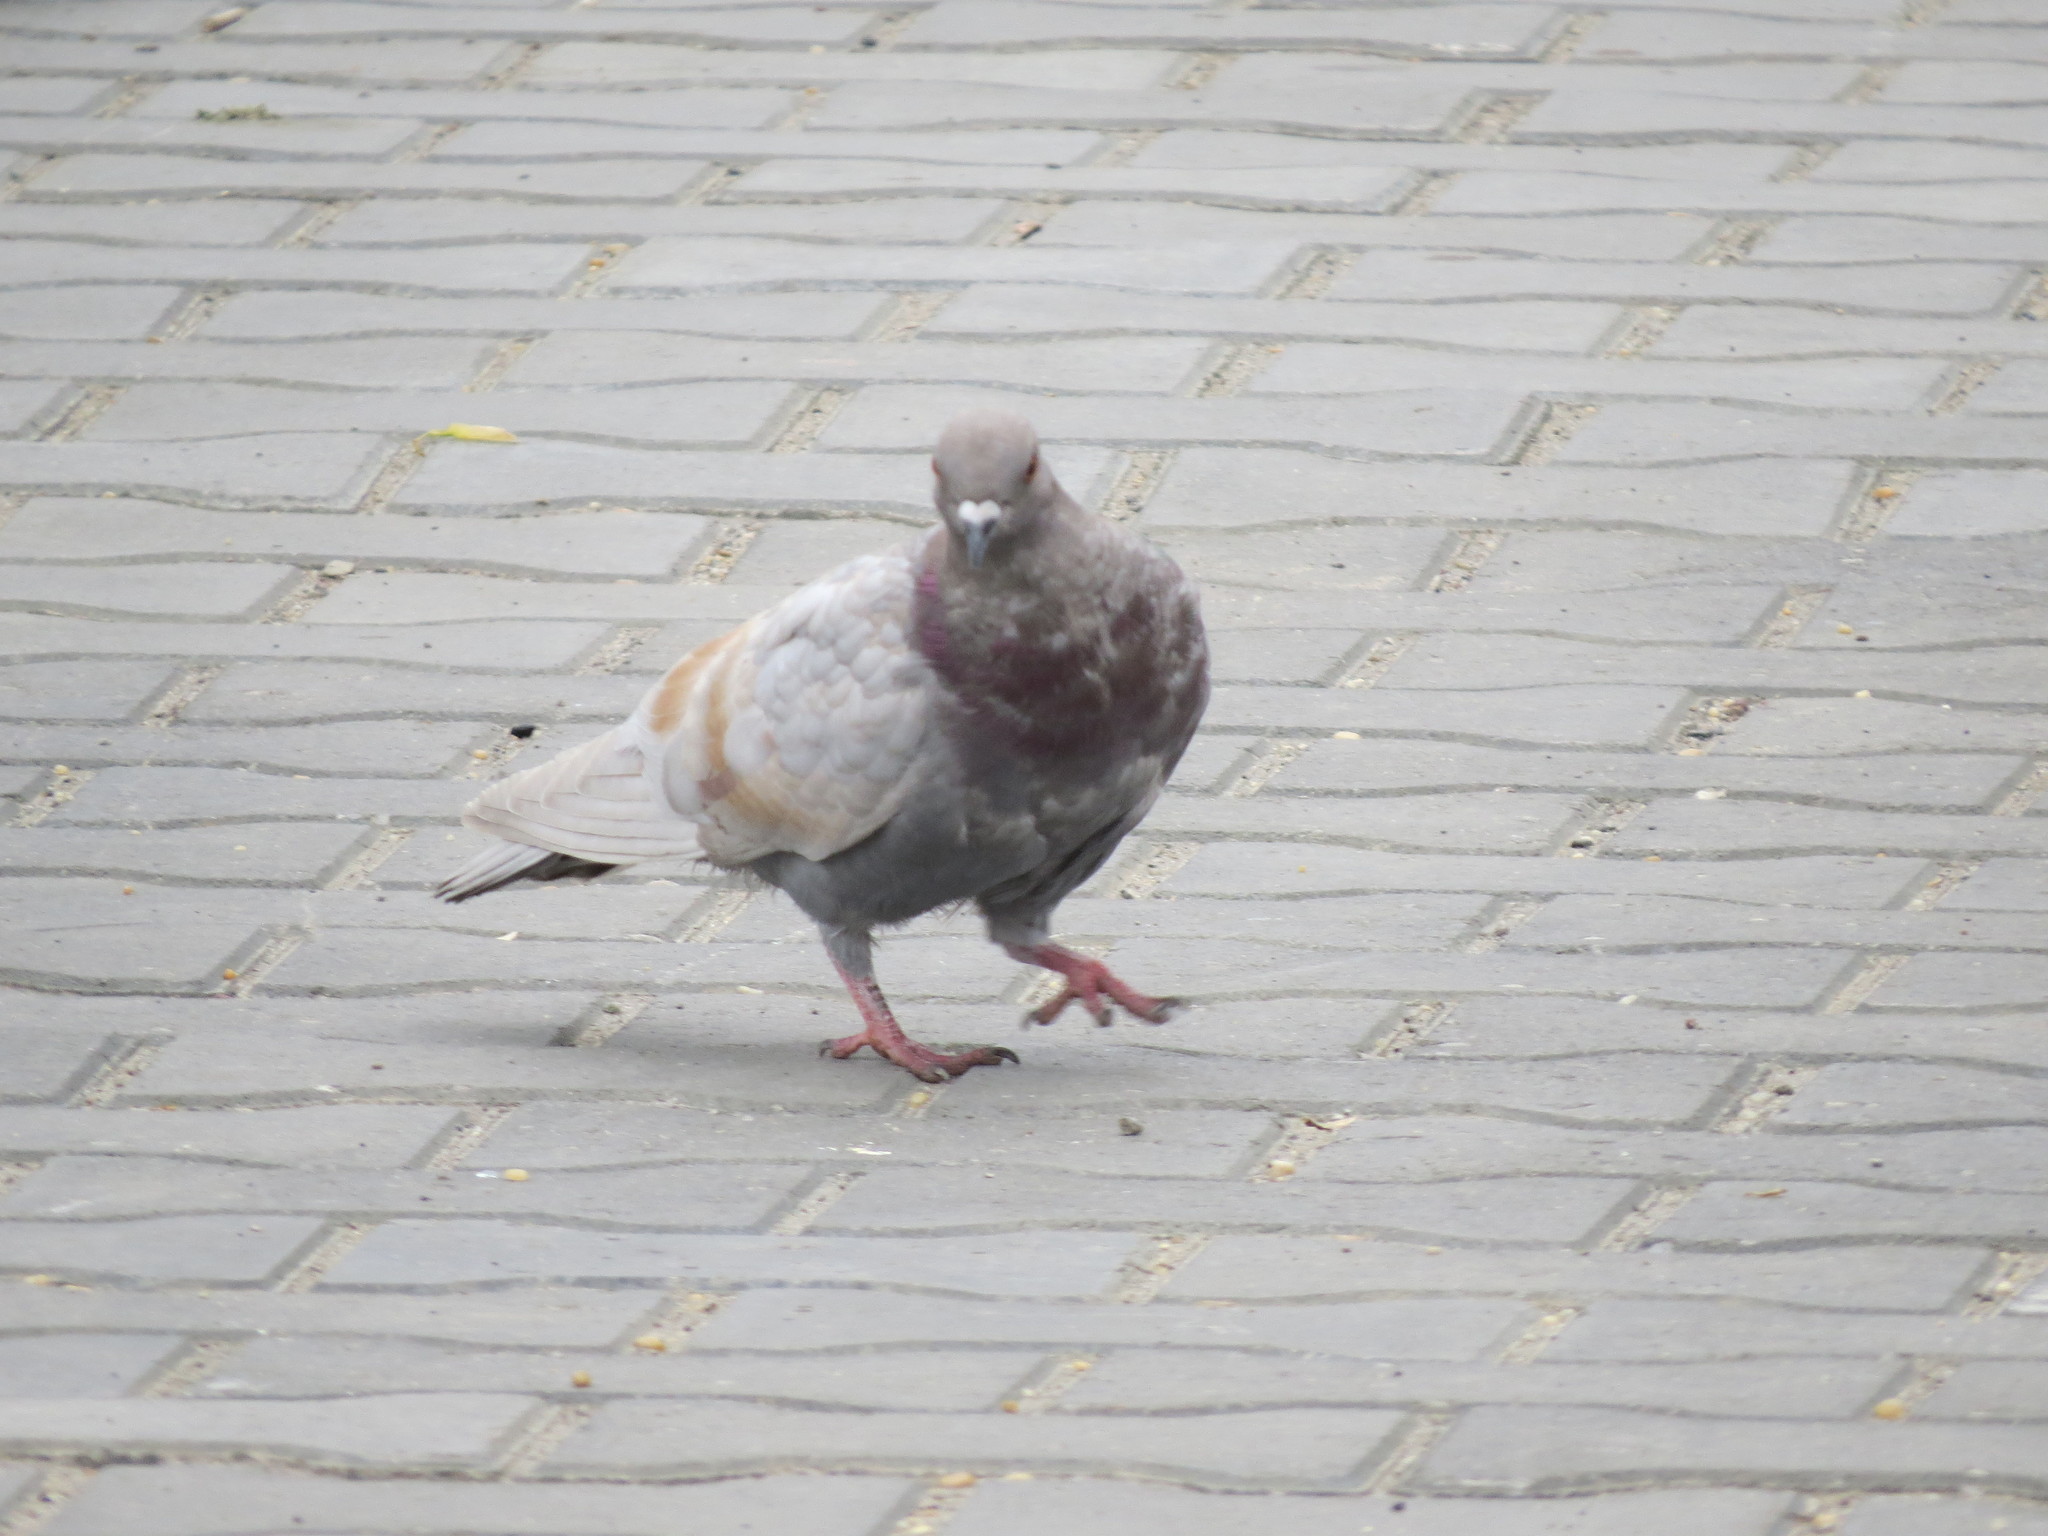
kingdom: Animalia
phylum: Chordata
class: Aves
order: Columbiformes
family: Columbidae
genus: Columba
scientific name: Columba livia
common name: Rock pigeon
